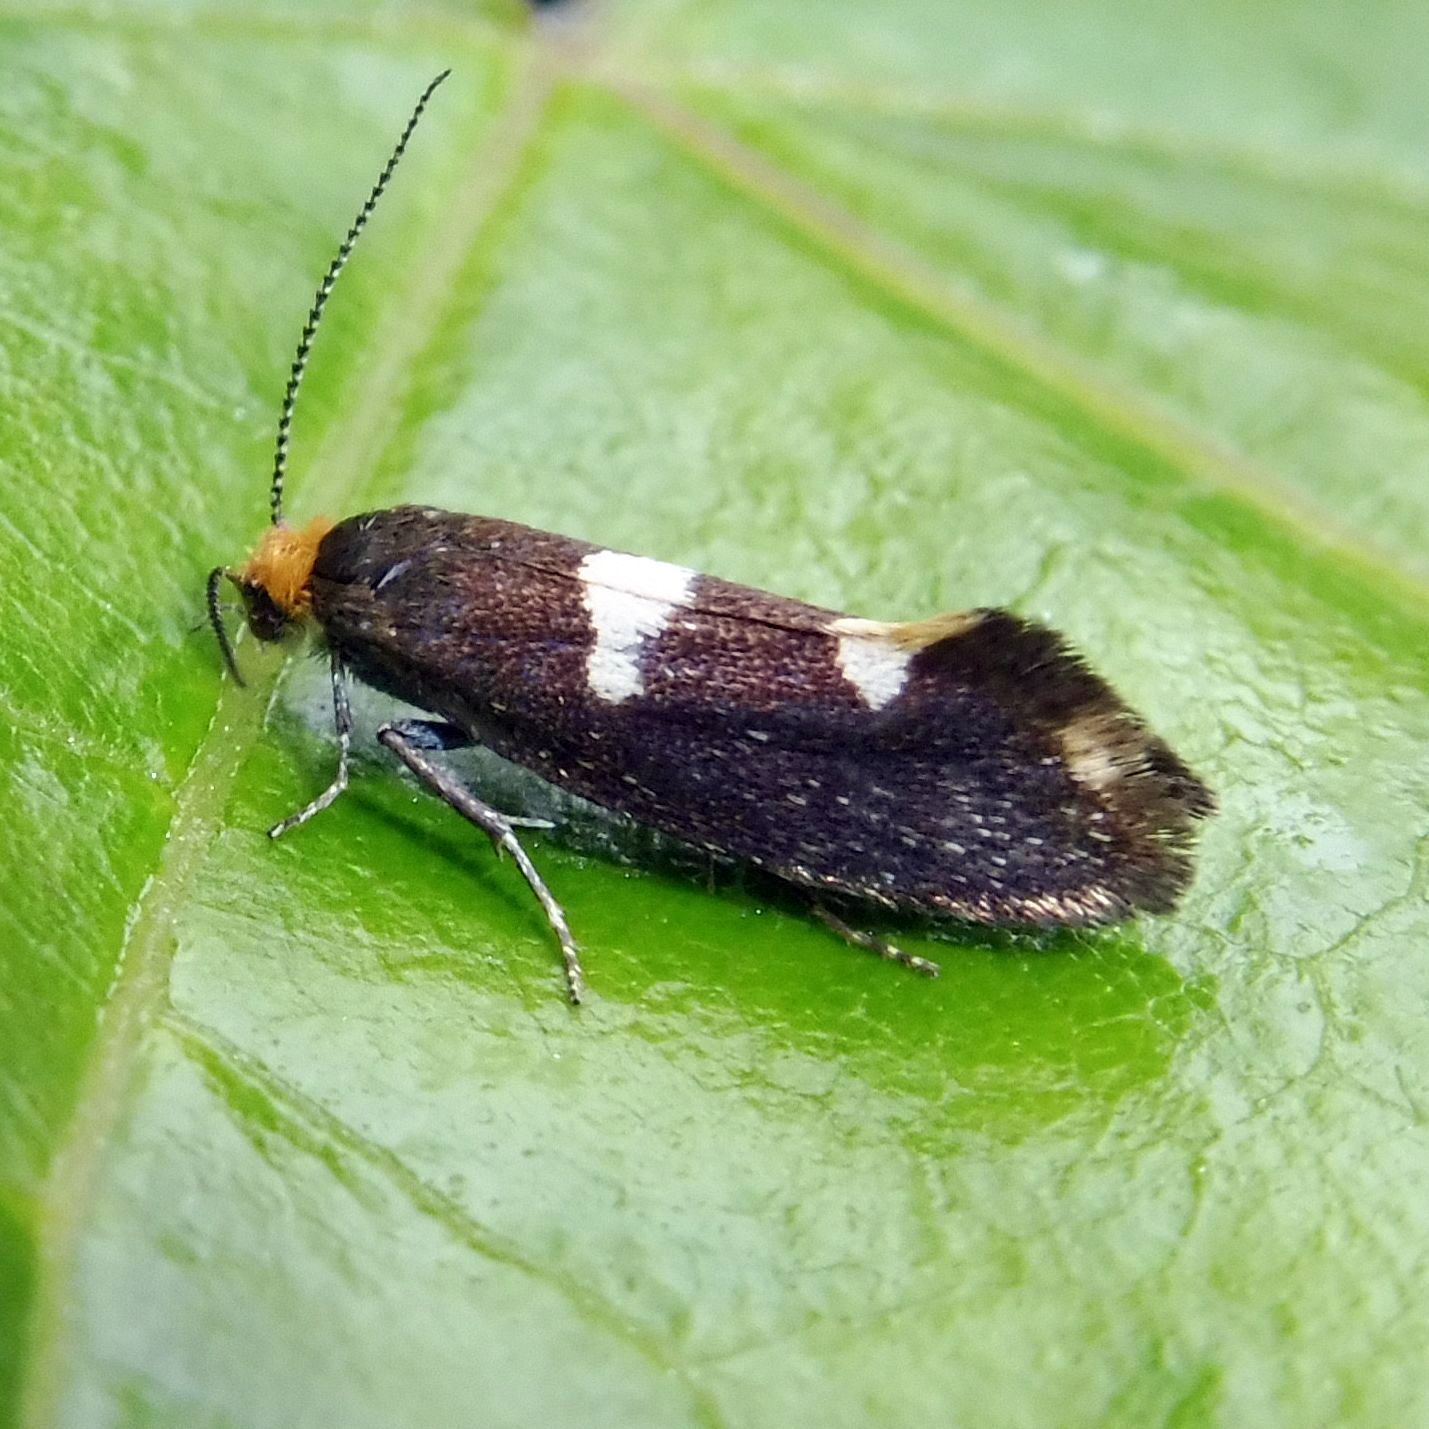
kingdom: Animalia
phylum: Arthropoda
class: Insecta
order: Lepidoptera
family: Incurvariidae
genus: Incurvaria
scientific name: Incurvaria masculella
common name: Feathered leaf-cutter
